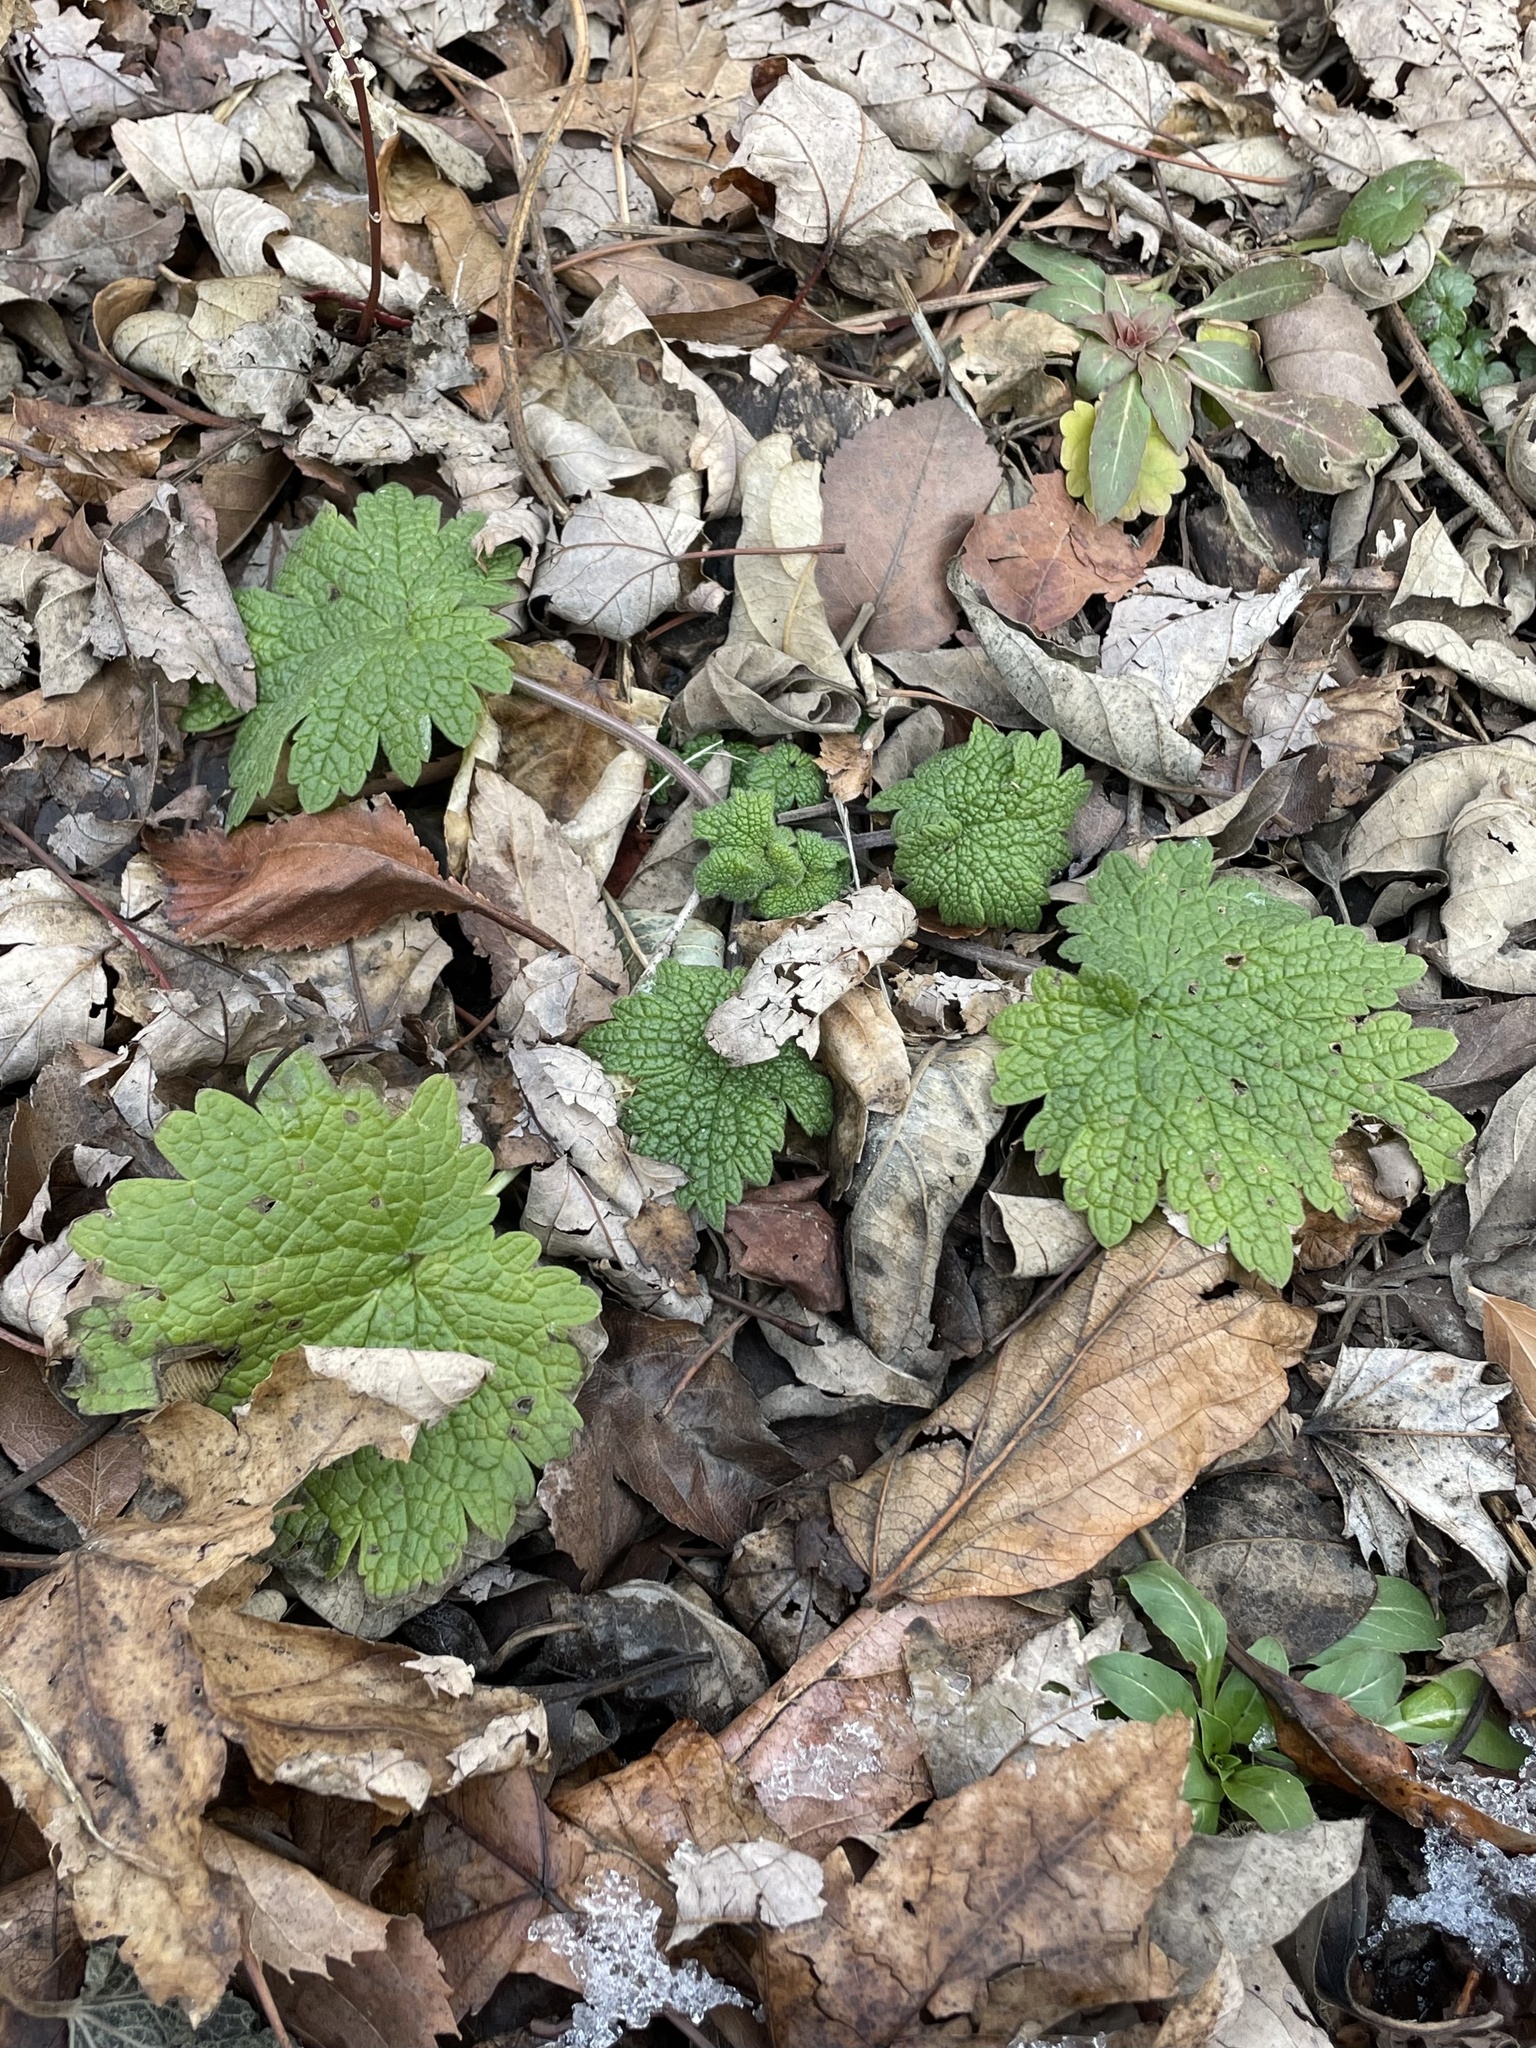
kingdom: Plantae
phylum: Tracheophyta
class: Magnoliopsida
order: Lamiales
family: Lamiaceae
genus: Leonurus
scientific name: Leonurus cardiaca
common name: Motherwort
